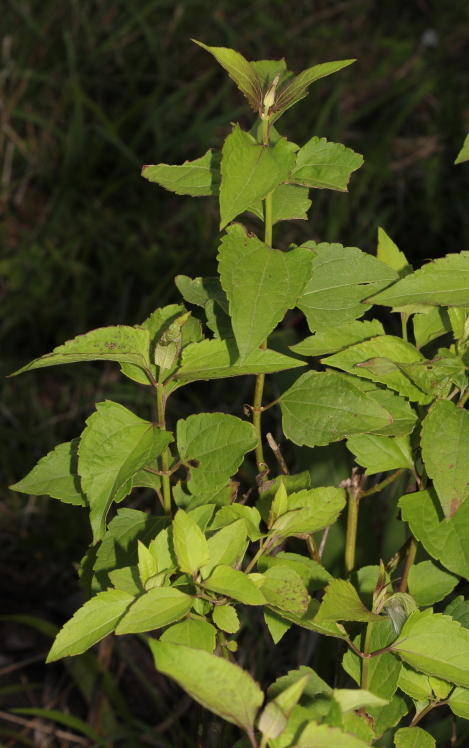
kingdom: Plantae
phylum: Tracheophyta
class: Magnoliopsida
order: Asterales
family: Asteraceae
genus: Chromolaena
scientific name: Chromolaena odorata
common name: Siamweed
